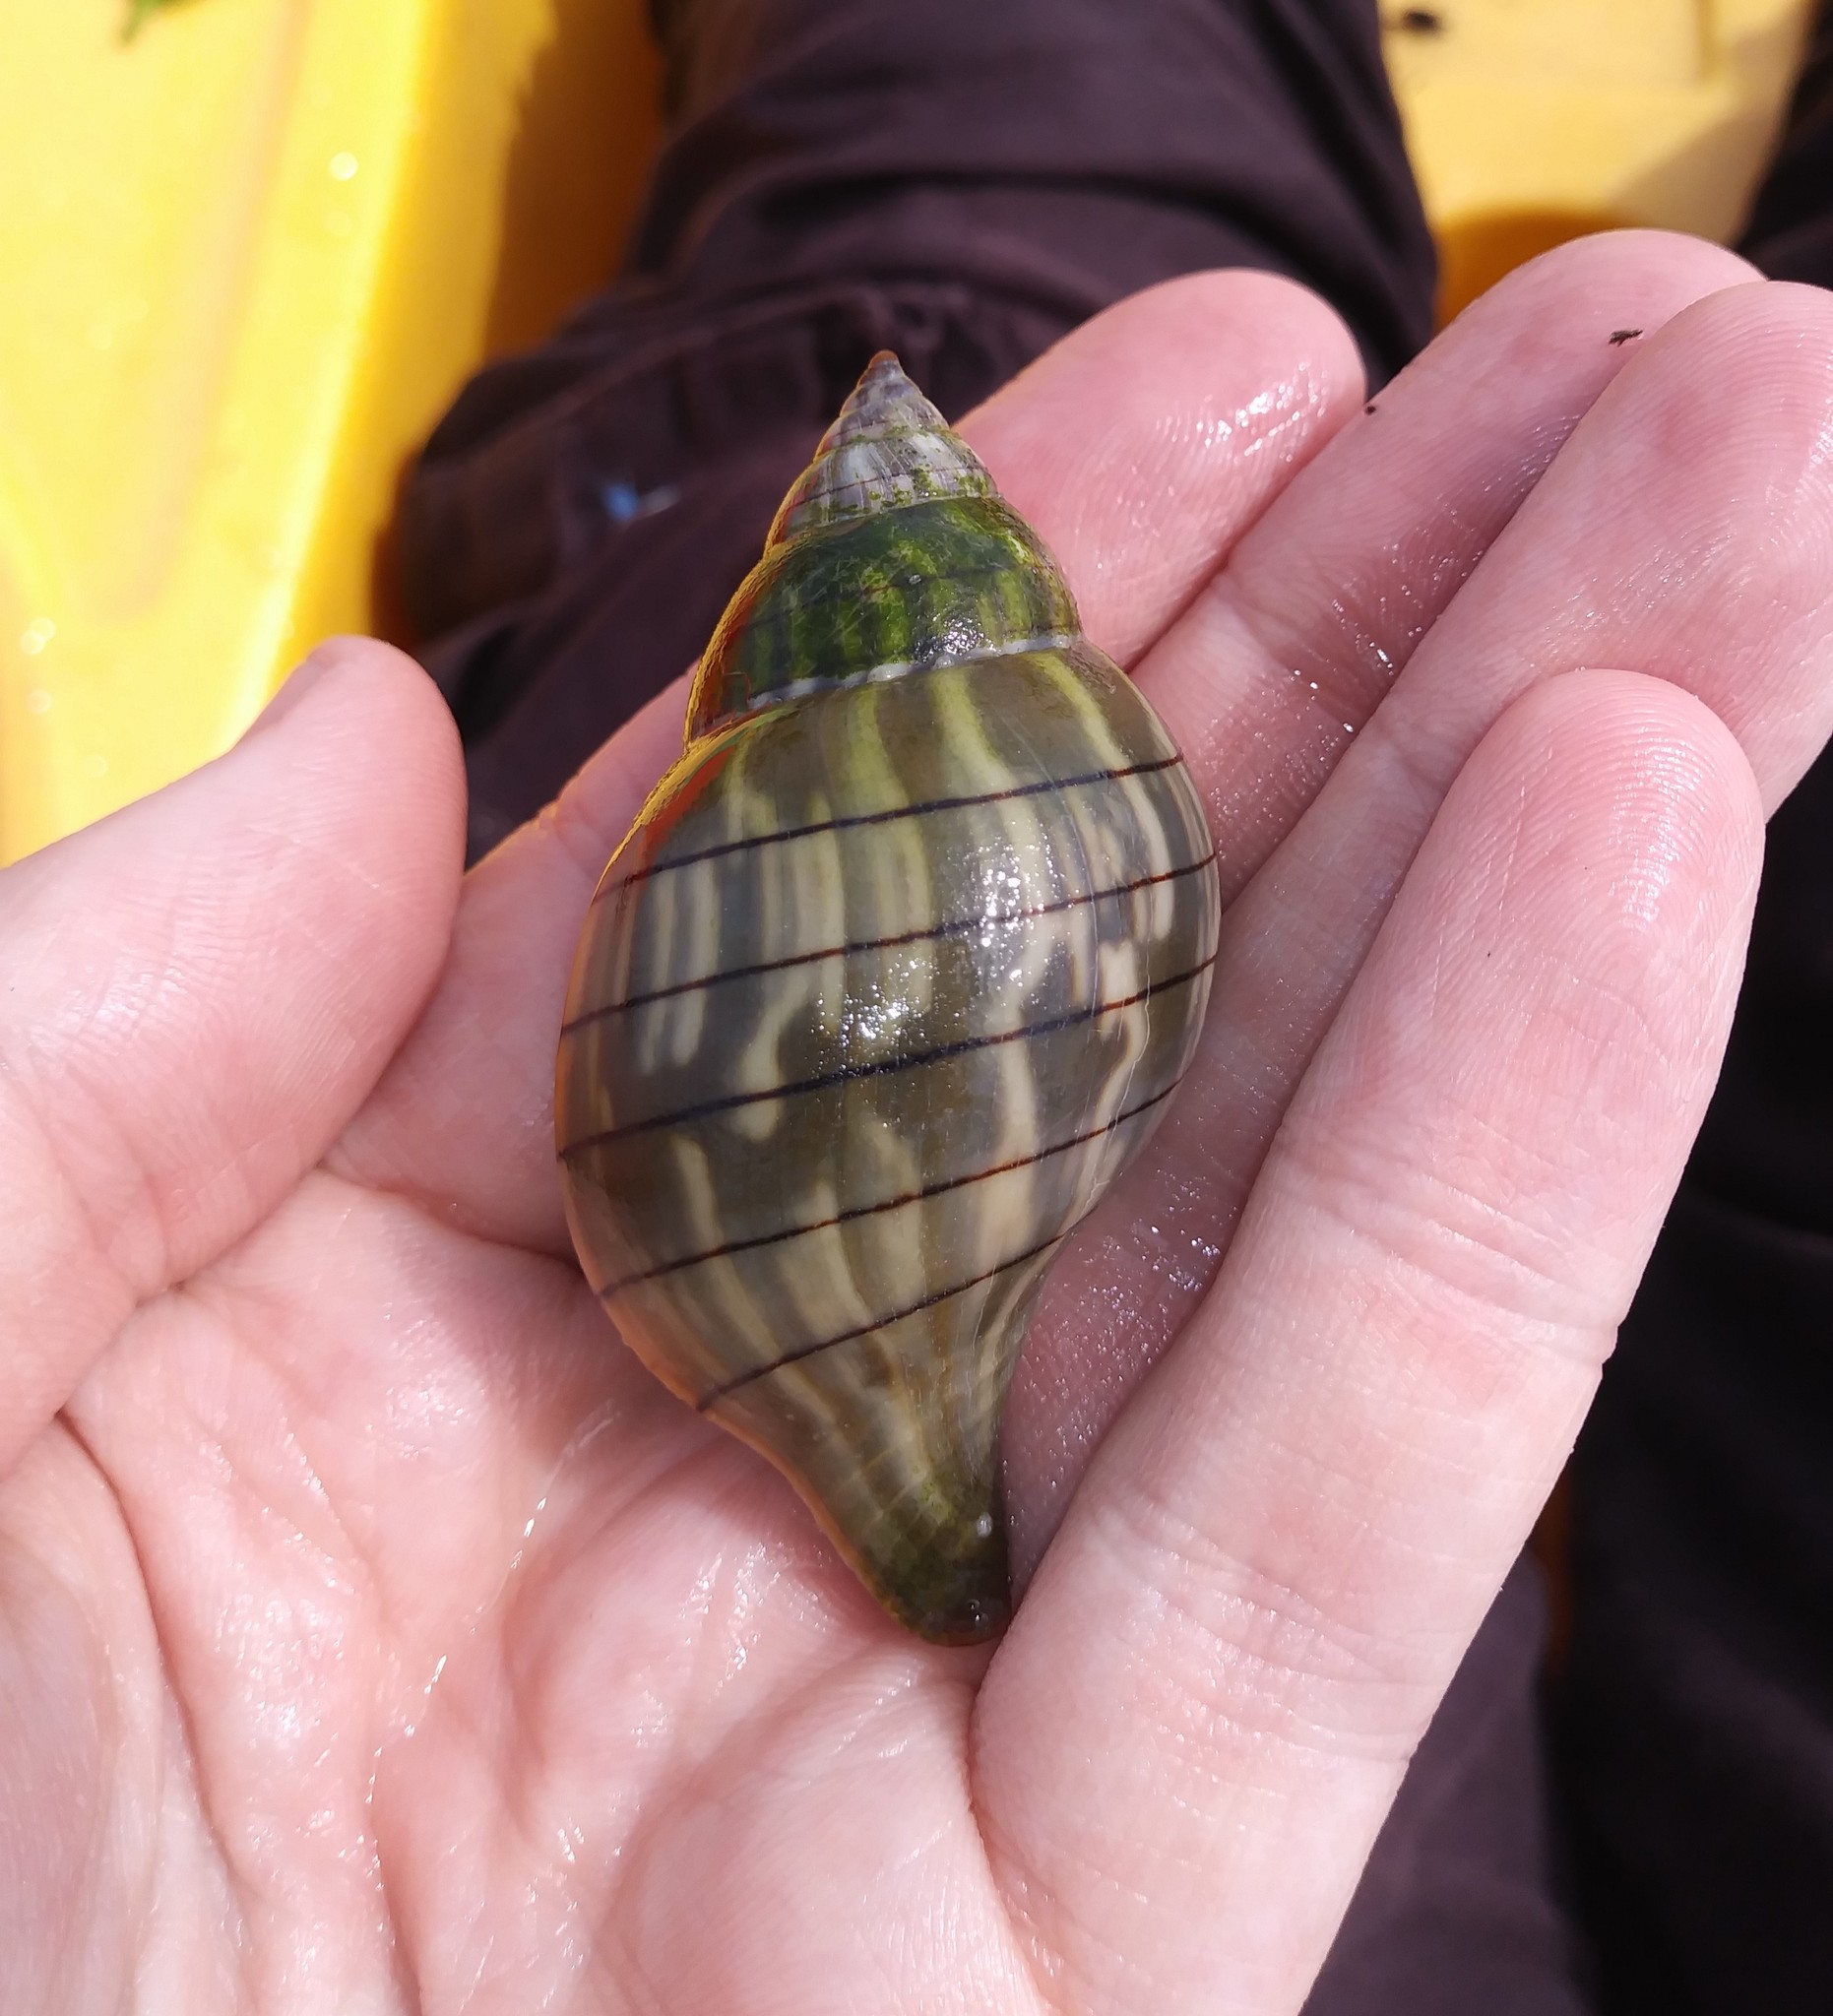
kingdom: Animalia
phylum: Mollusca
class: Gastropoda
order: Neogastropoda
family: Fasciolariidae
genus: Cinctura
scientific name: Cinctura hunteria
